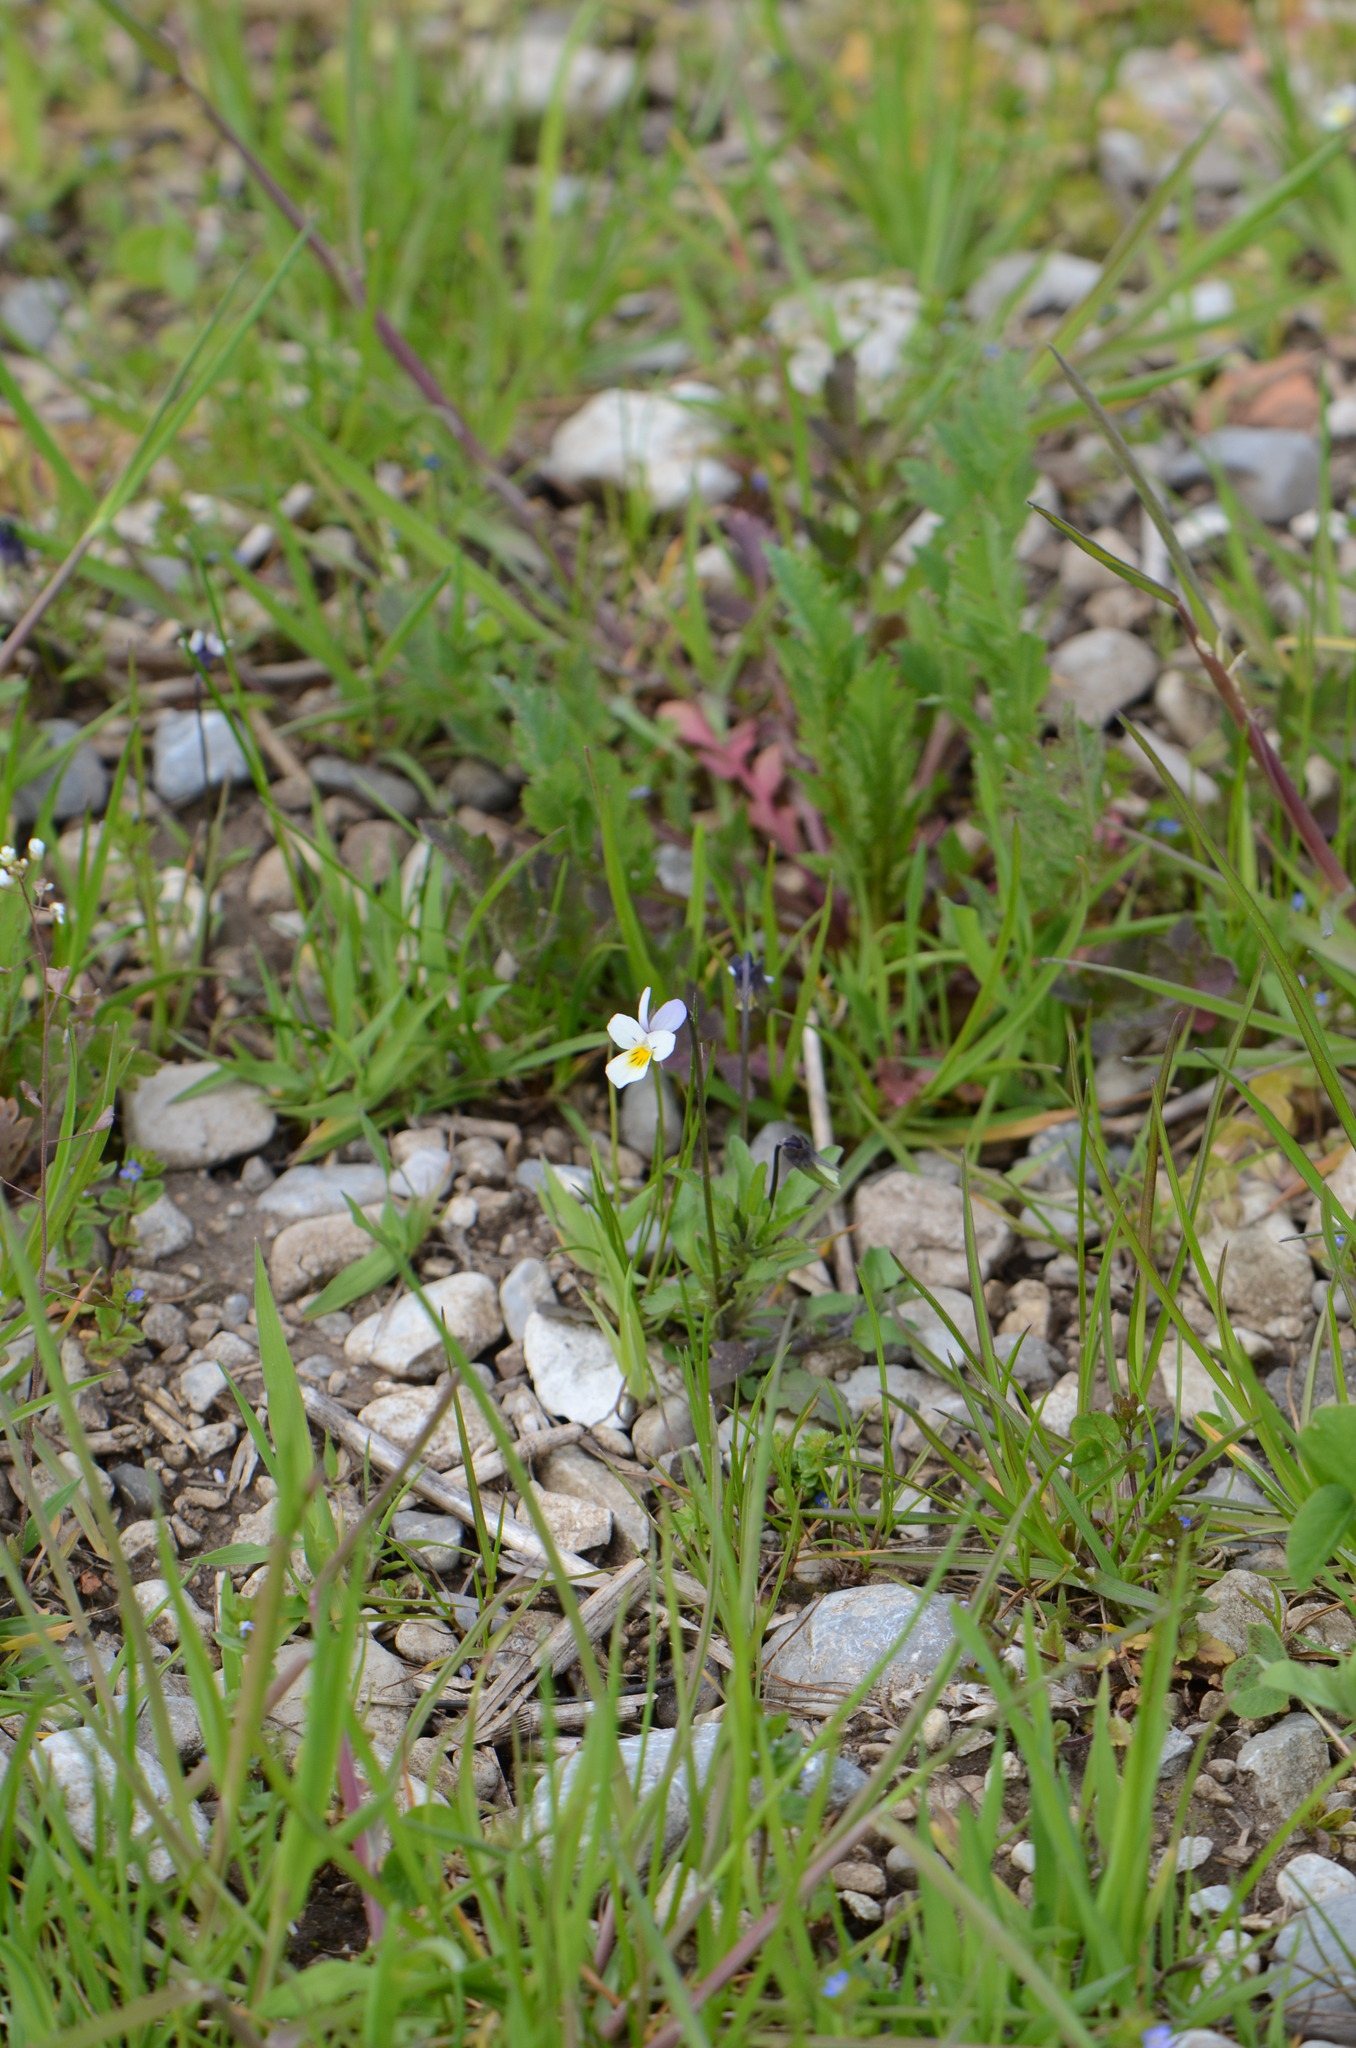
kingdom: Plantae
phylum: Tracheophyta
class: Magnoliopsida
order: Malpighiales
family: Violaceae
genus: Viola
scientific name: Viola arvensis
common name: Field pansy
